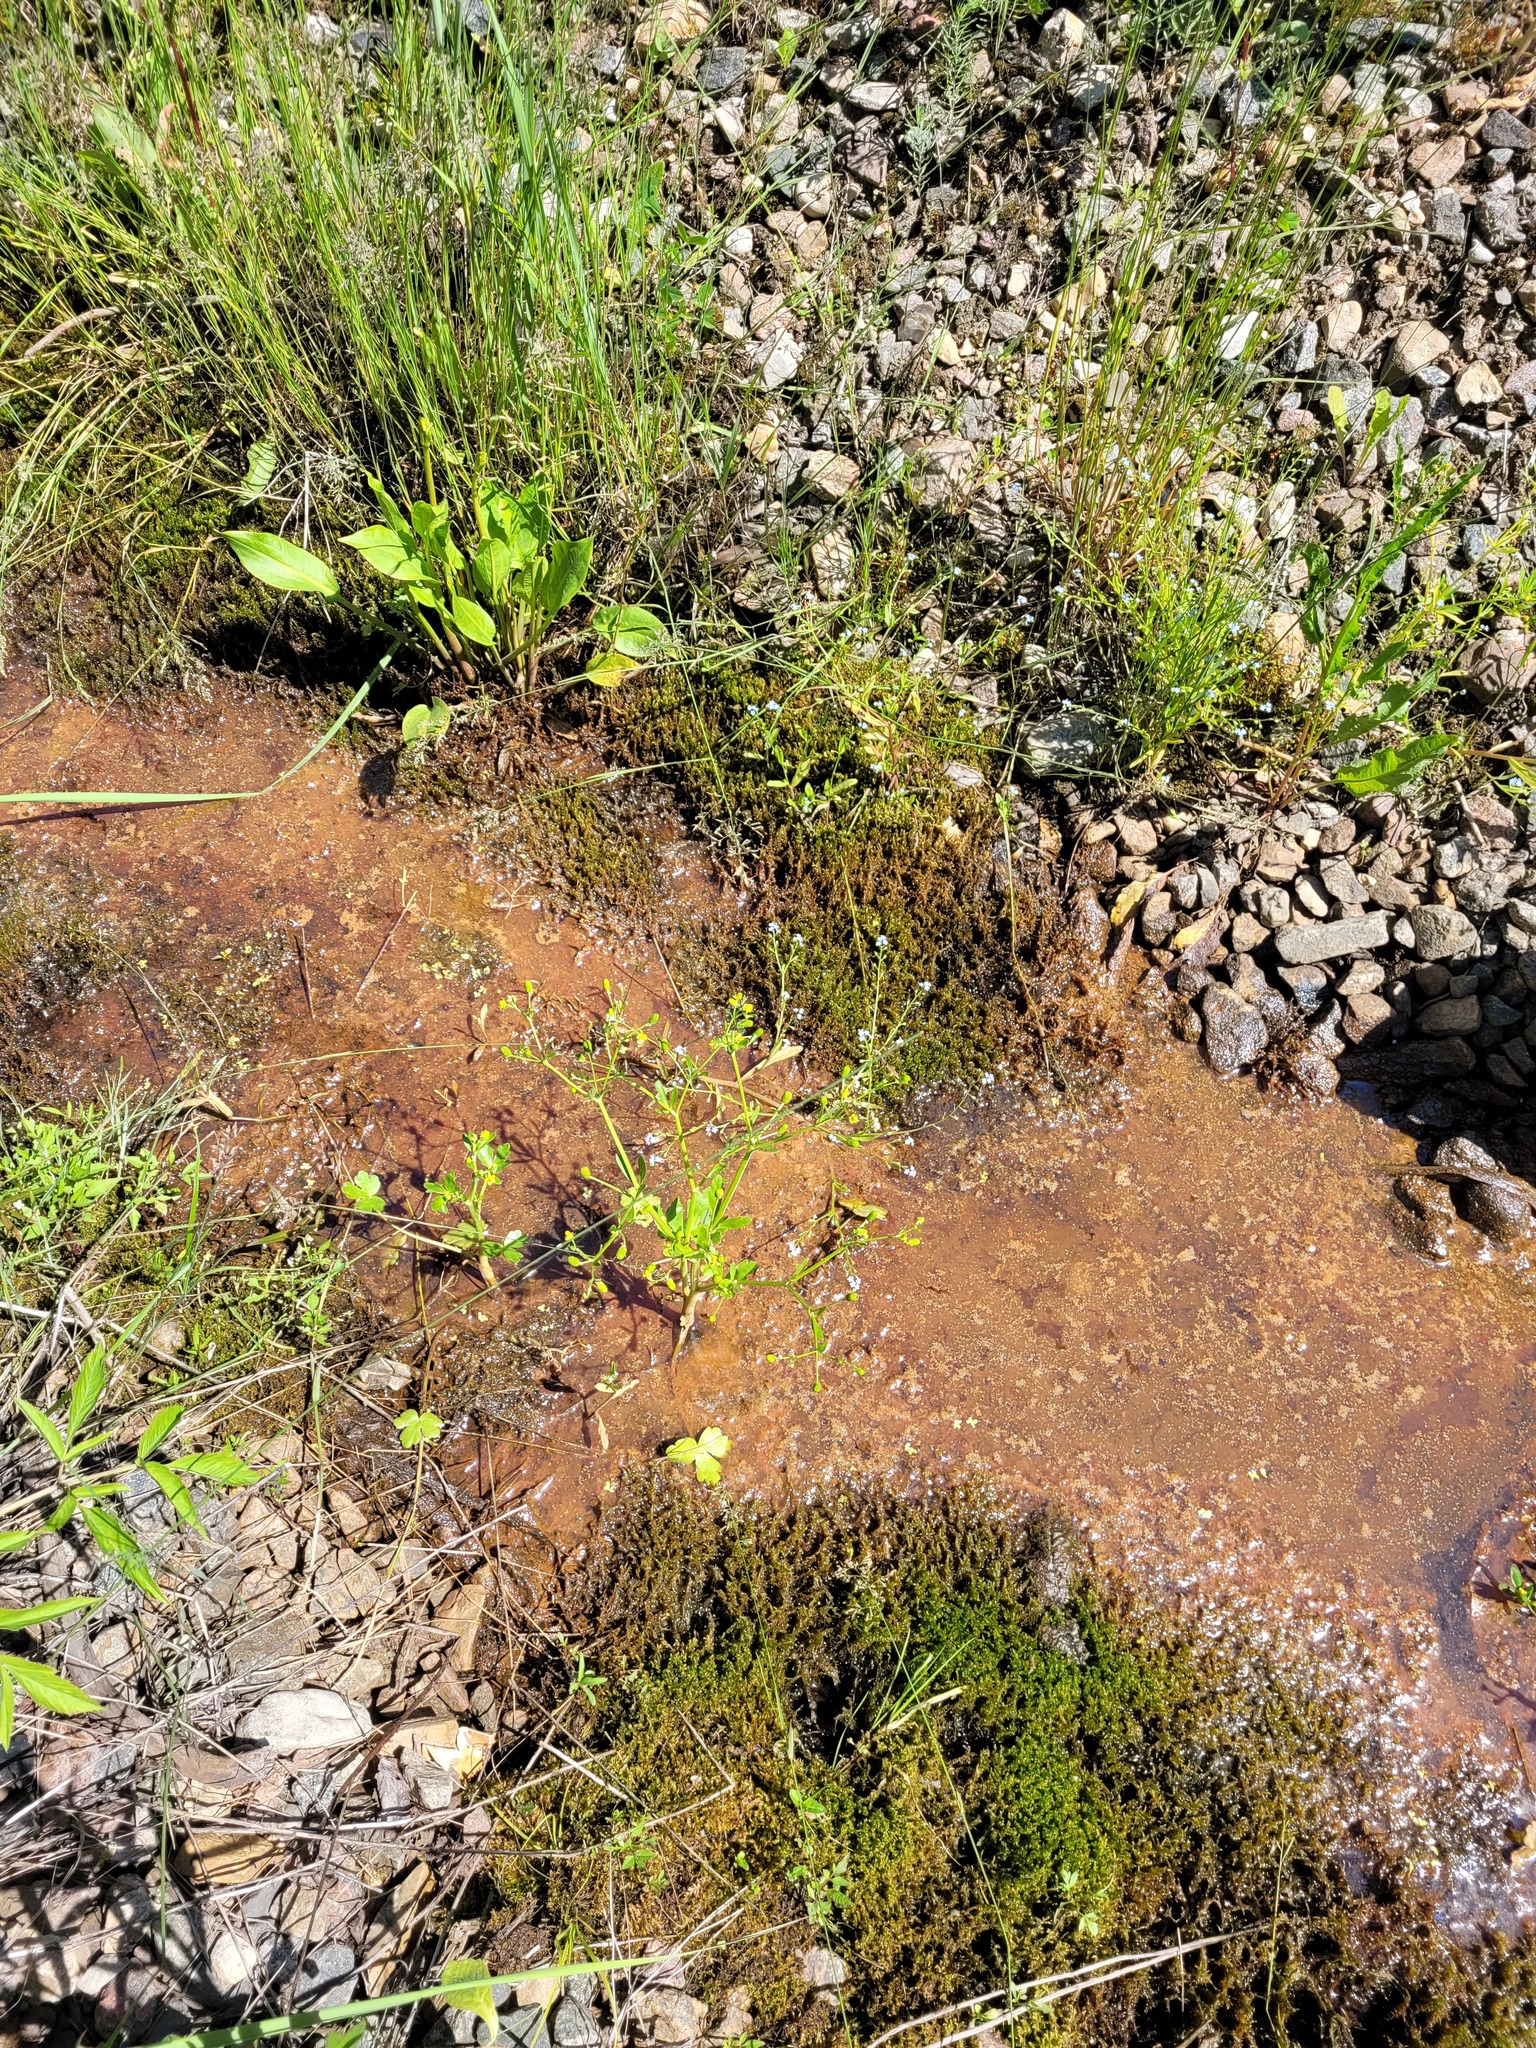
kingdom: Plantae
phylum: Tracheophyta
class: Magnoliopsida
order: Ranunculales
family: Ranunculaceae
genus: Ranunculus
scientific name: Ranunculus sceleratus
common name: Celery-leaved buttercup
